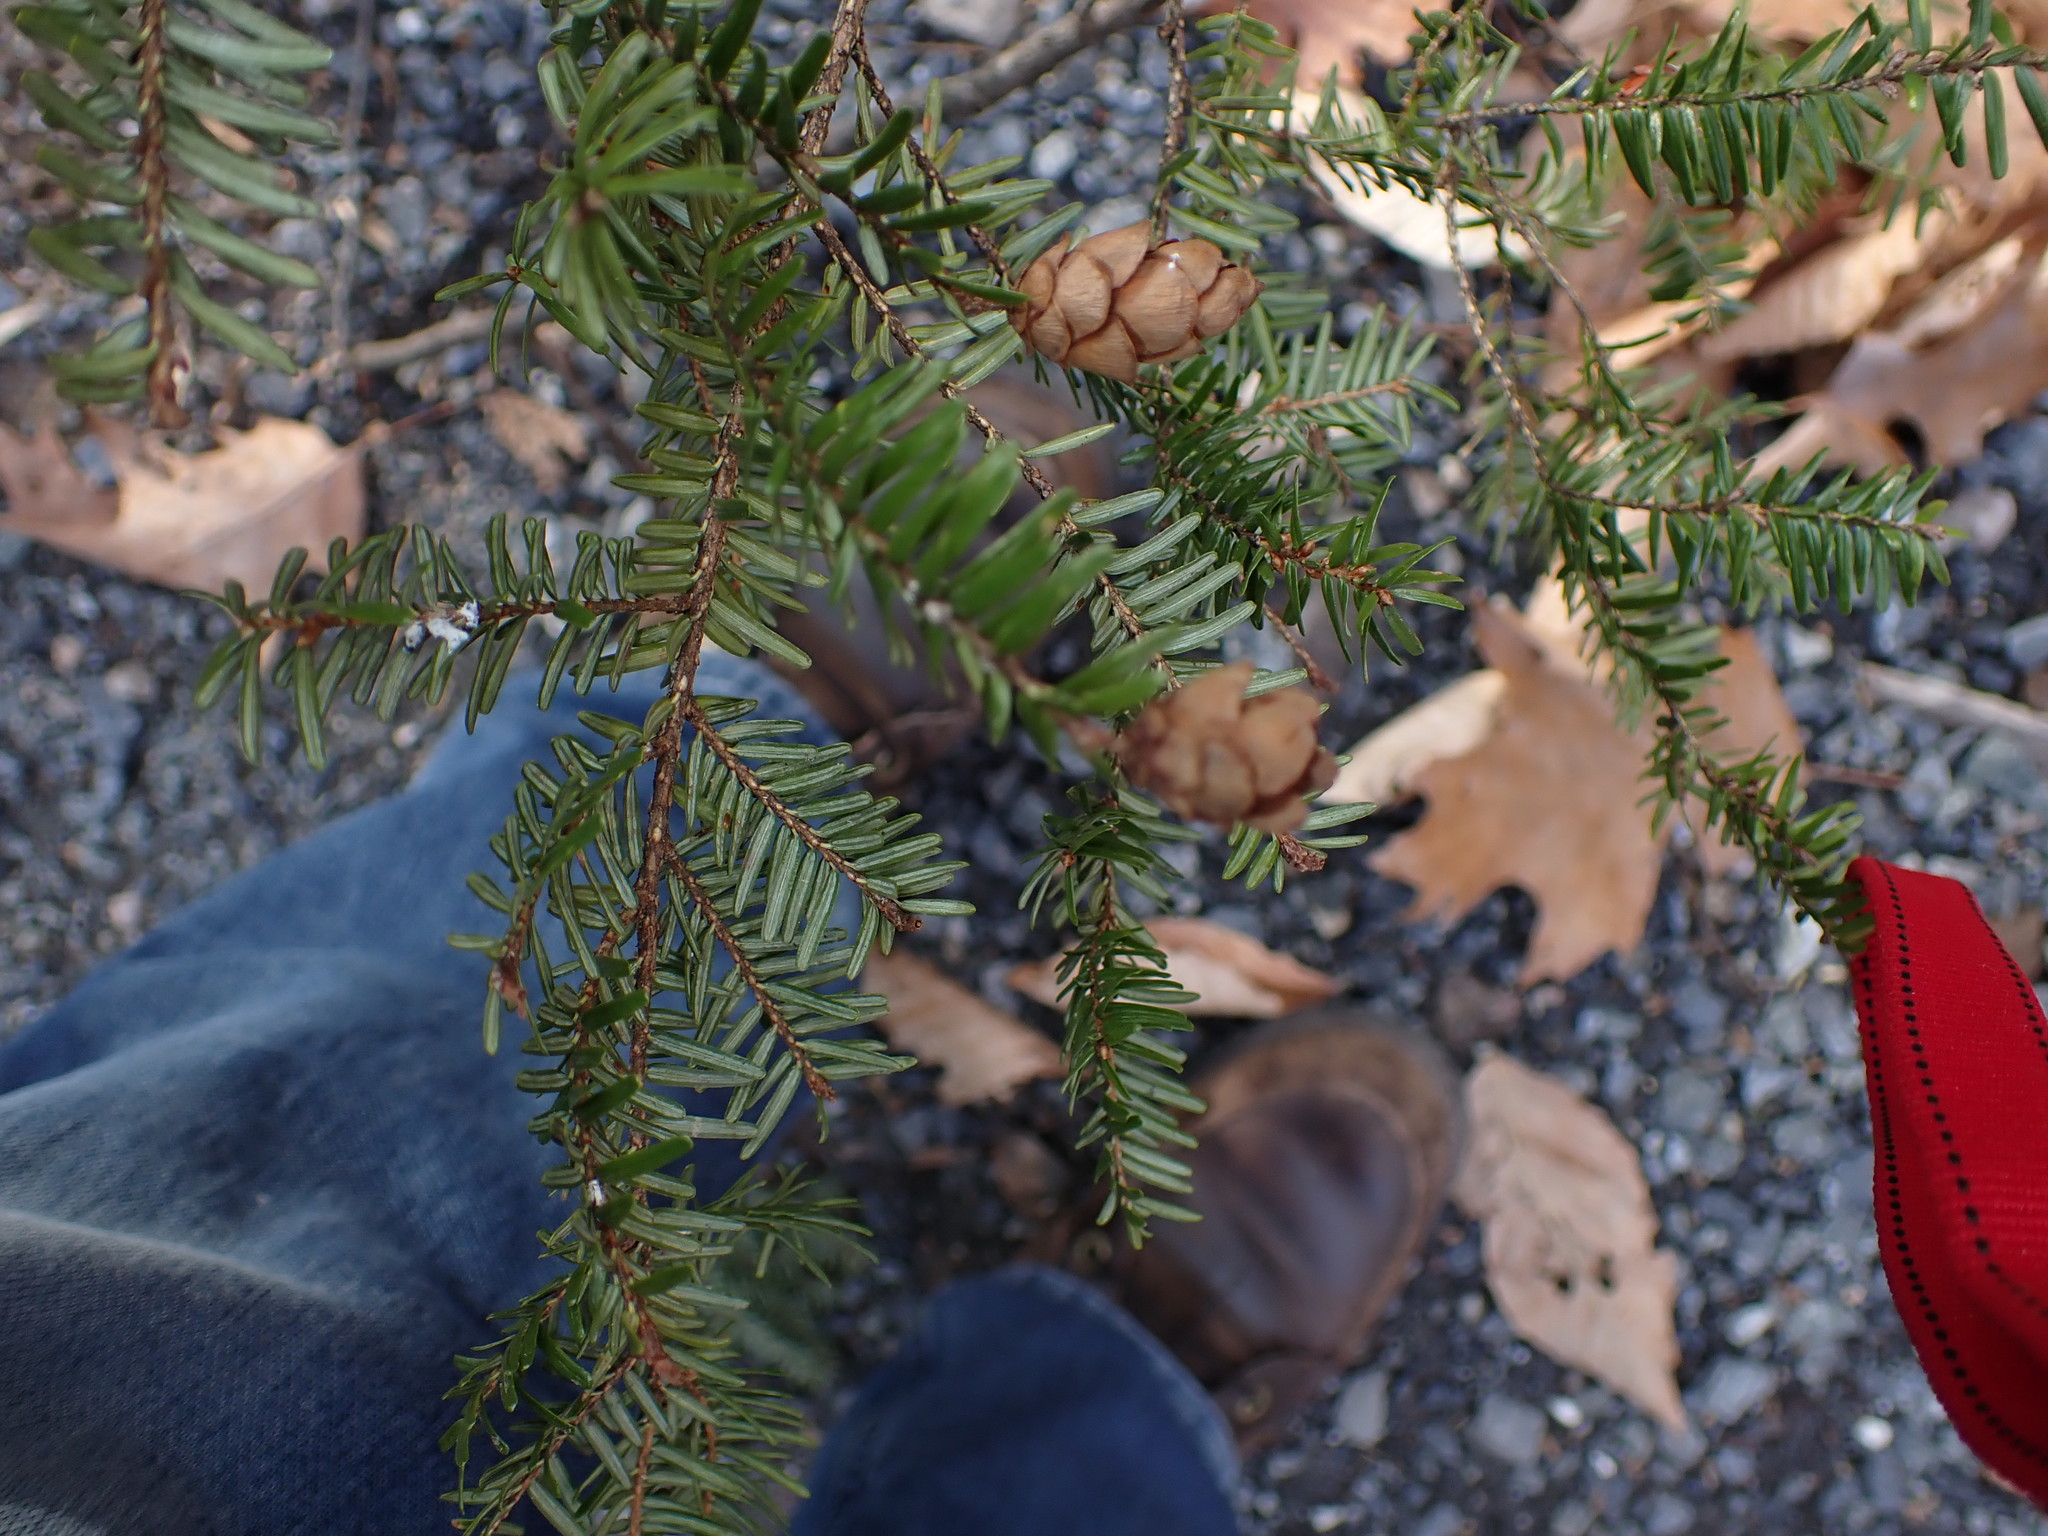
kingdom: Plantae
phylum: Tracheophyta
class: Pinopsida
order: Pinales
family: Pinaceae
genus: Tsuga
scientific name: Tsuga canadensis
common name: Eastern hemlock
